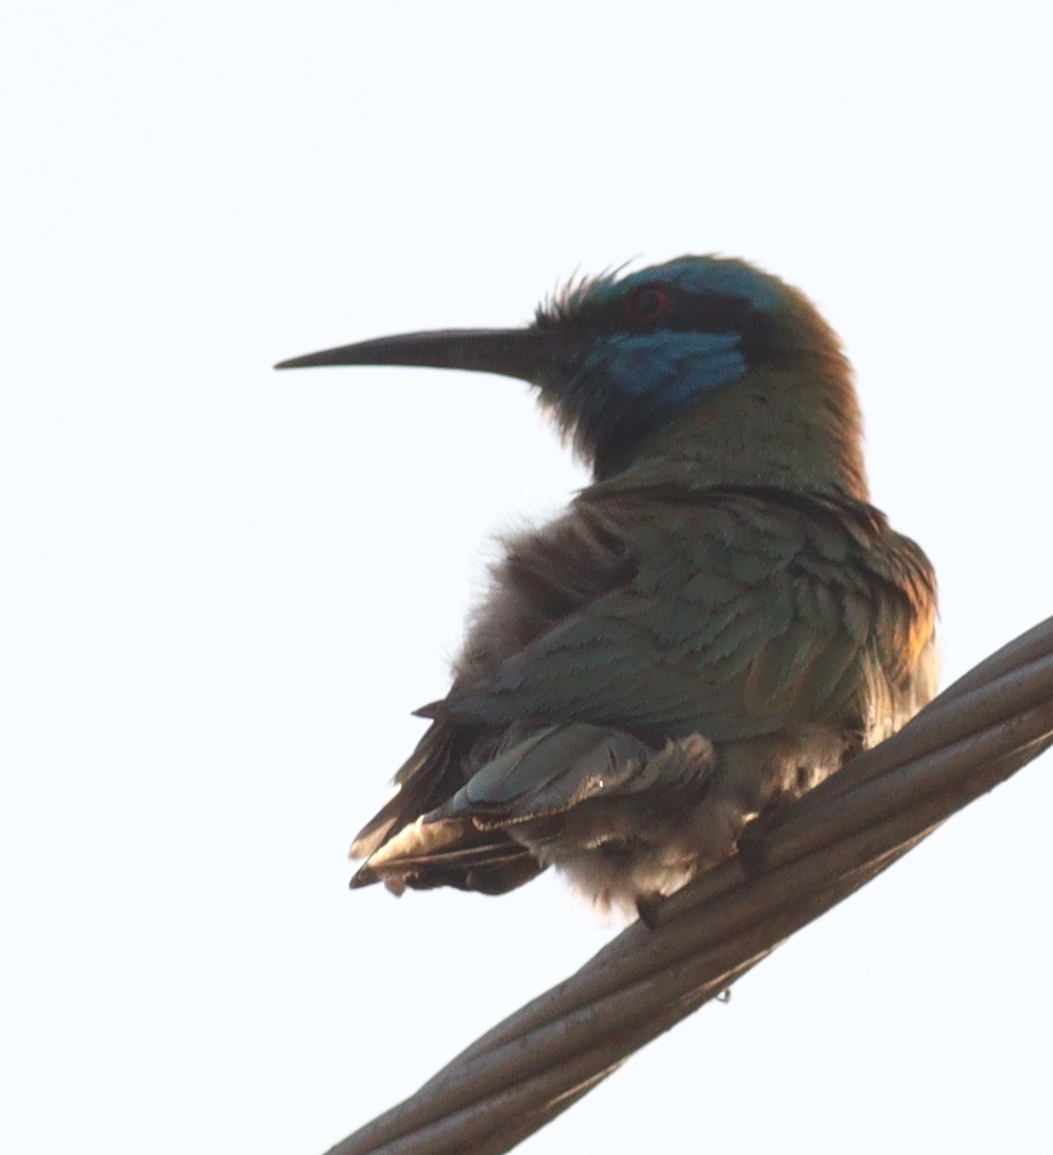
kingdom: Animalia
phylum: Chordata
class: Aves
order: Coraciiformes
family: Meropidae
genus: Merops
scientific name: Merops cyanophrys
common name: Arabian green bee-eater
